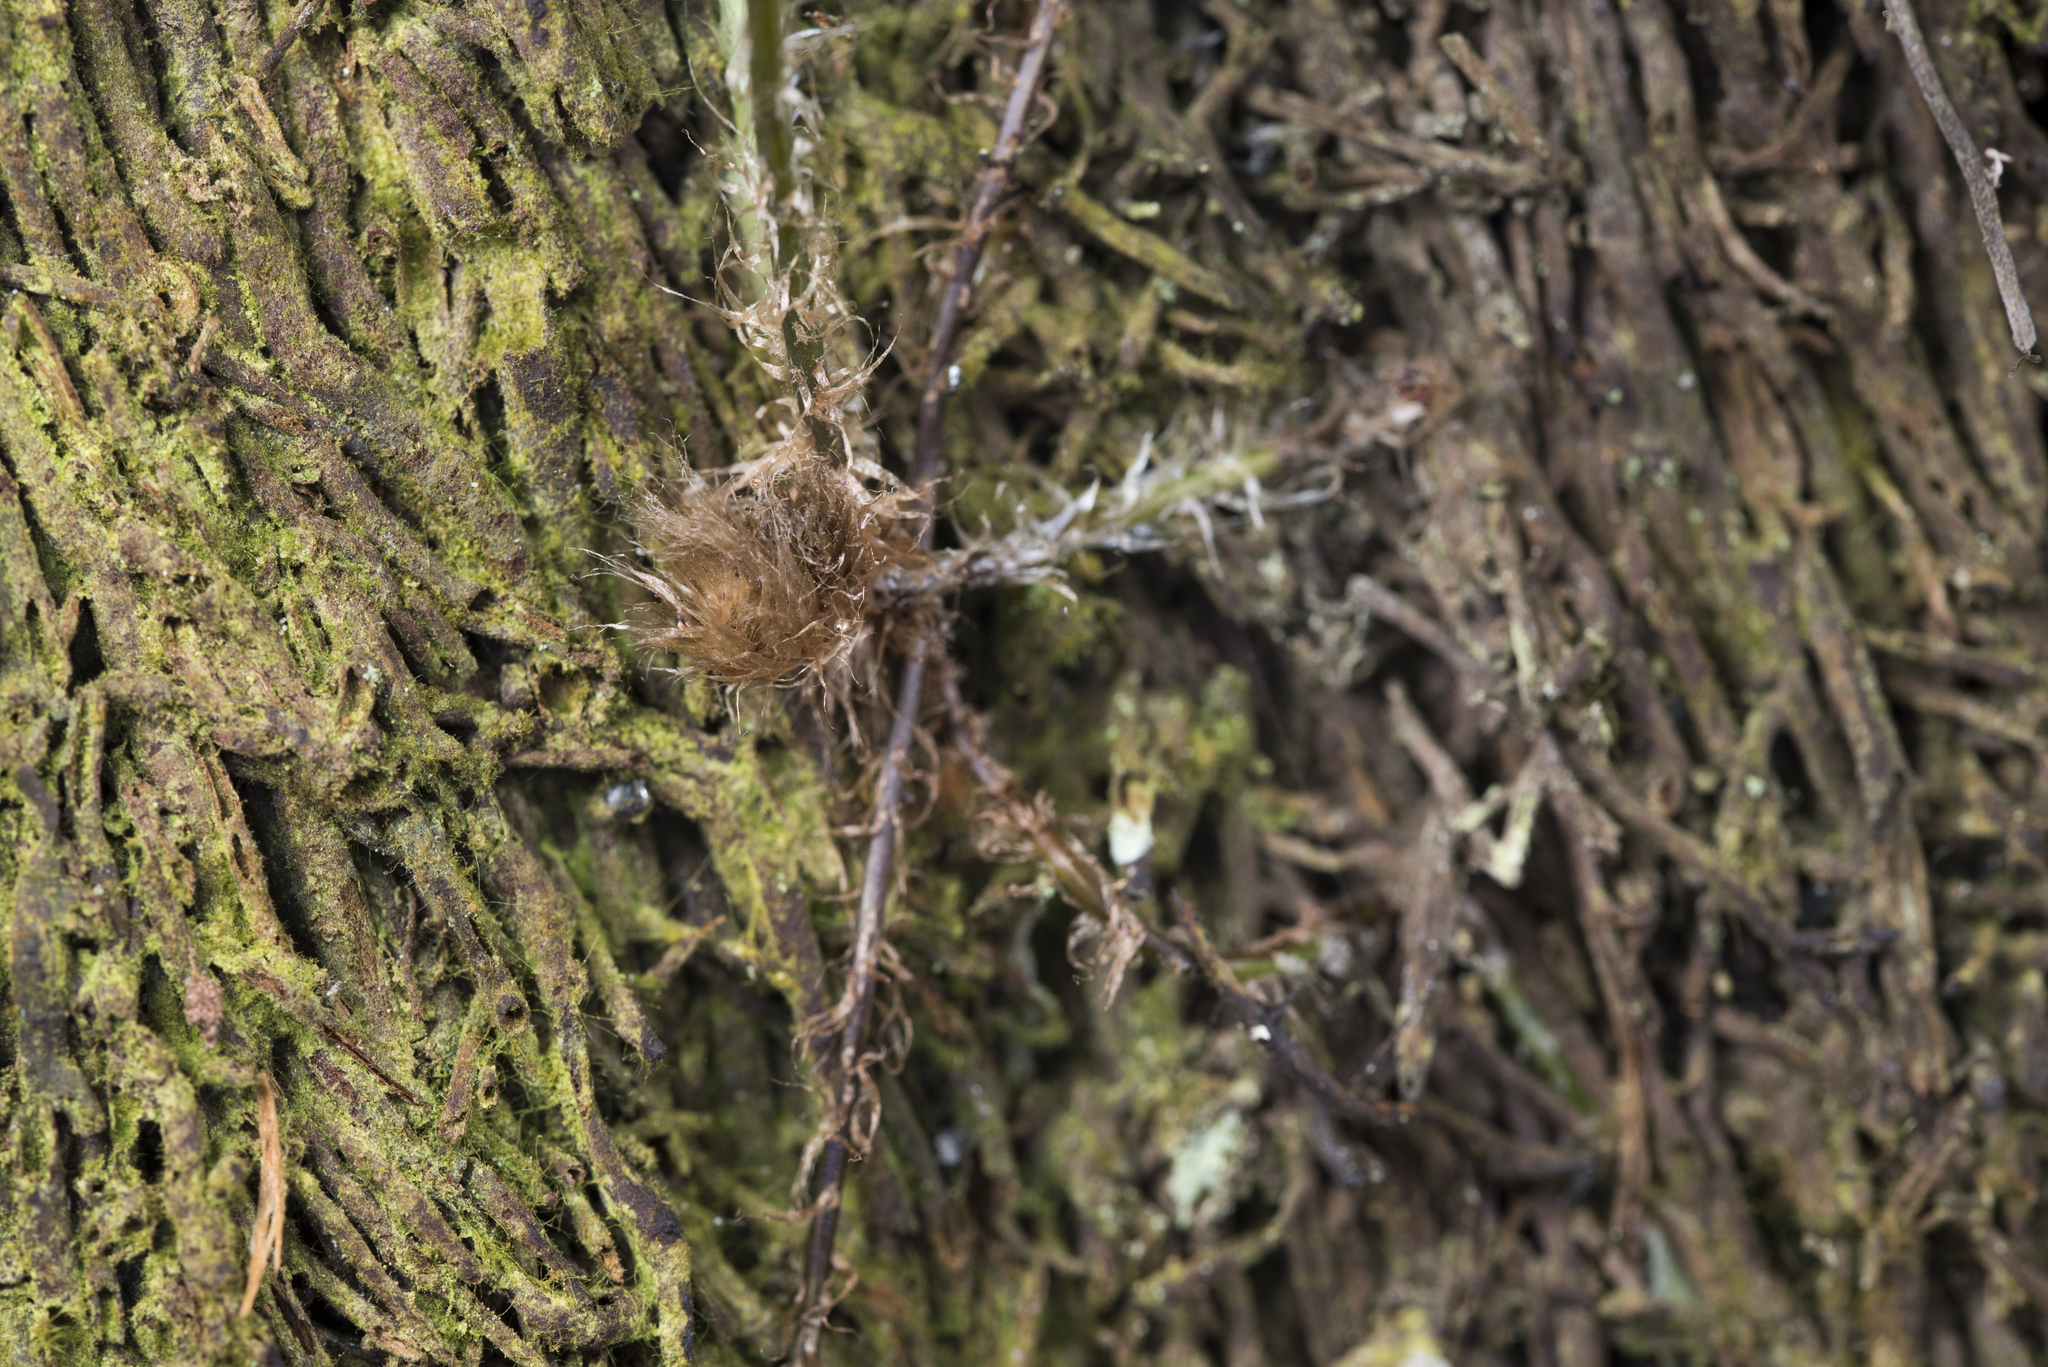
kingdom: Plantae
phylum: Tracheophyta
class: Polypodiopsida
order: Polypodiales
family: Nephrolepidaceae
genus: Nephrolepis
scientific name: Nephrolepis cordifolia
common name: Narrow swordfern
